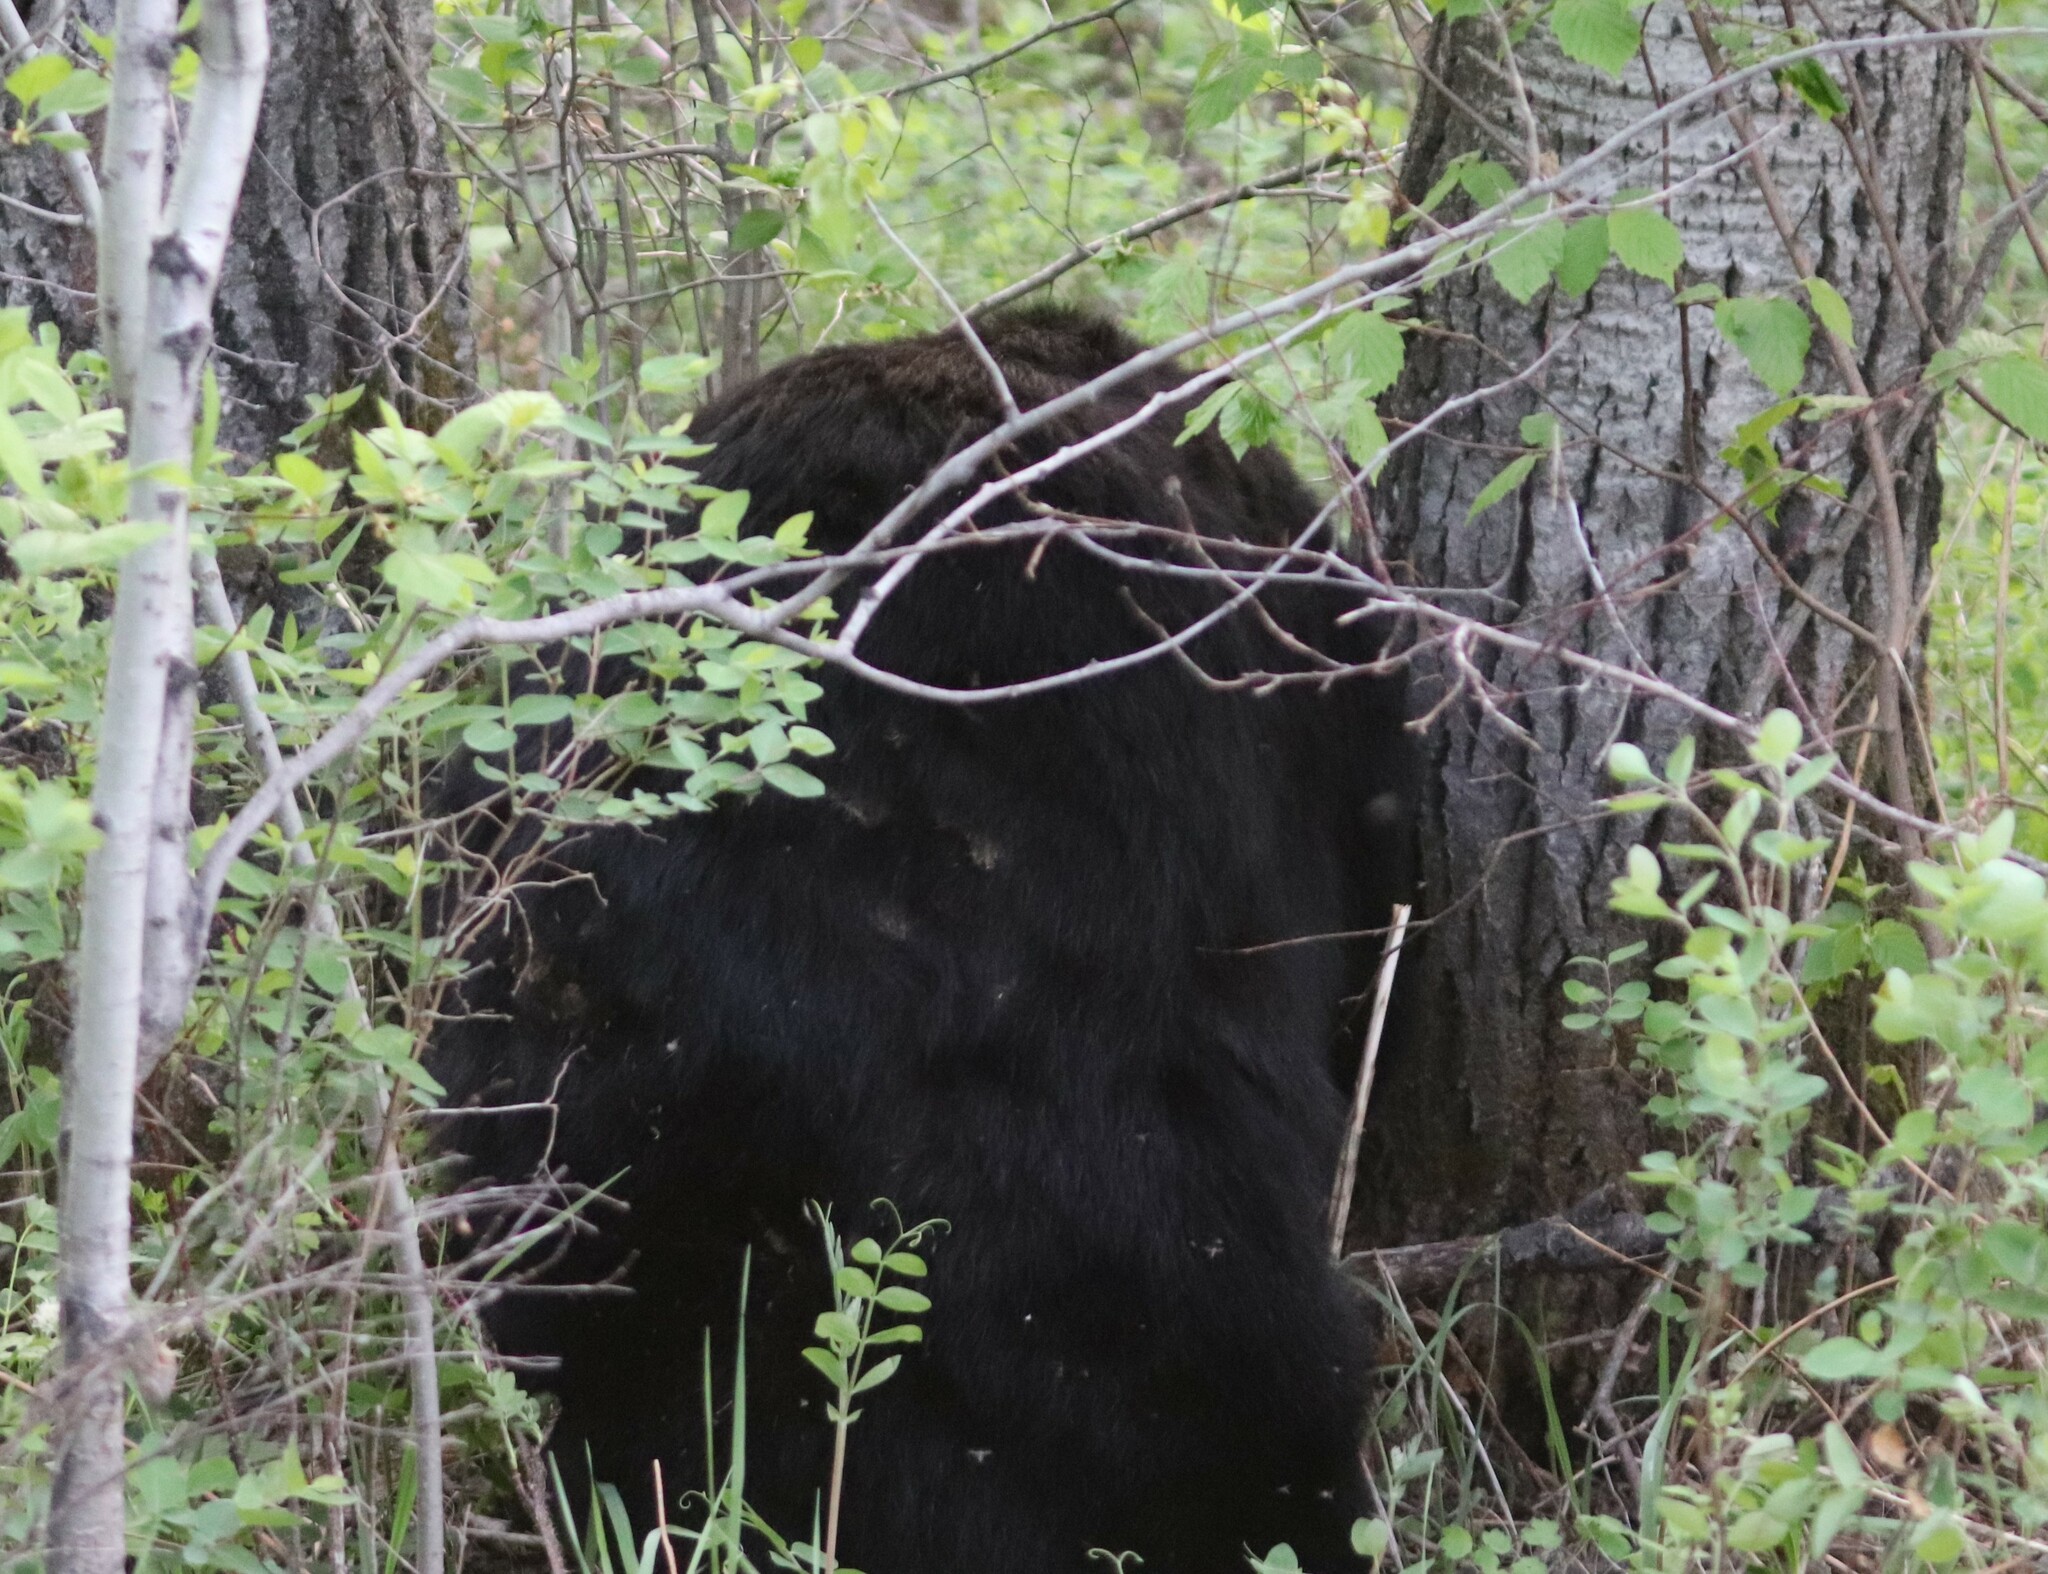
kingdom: Animalia
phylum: Chordata
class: Mammalia
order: Carnivora
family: Ursidae
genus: Ursus
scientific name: Ursus americanus
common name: American black bear
